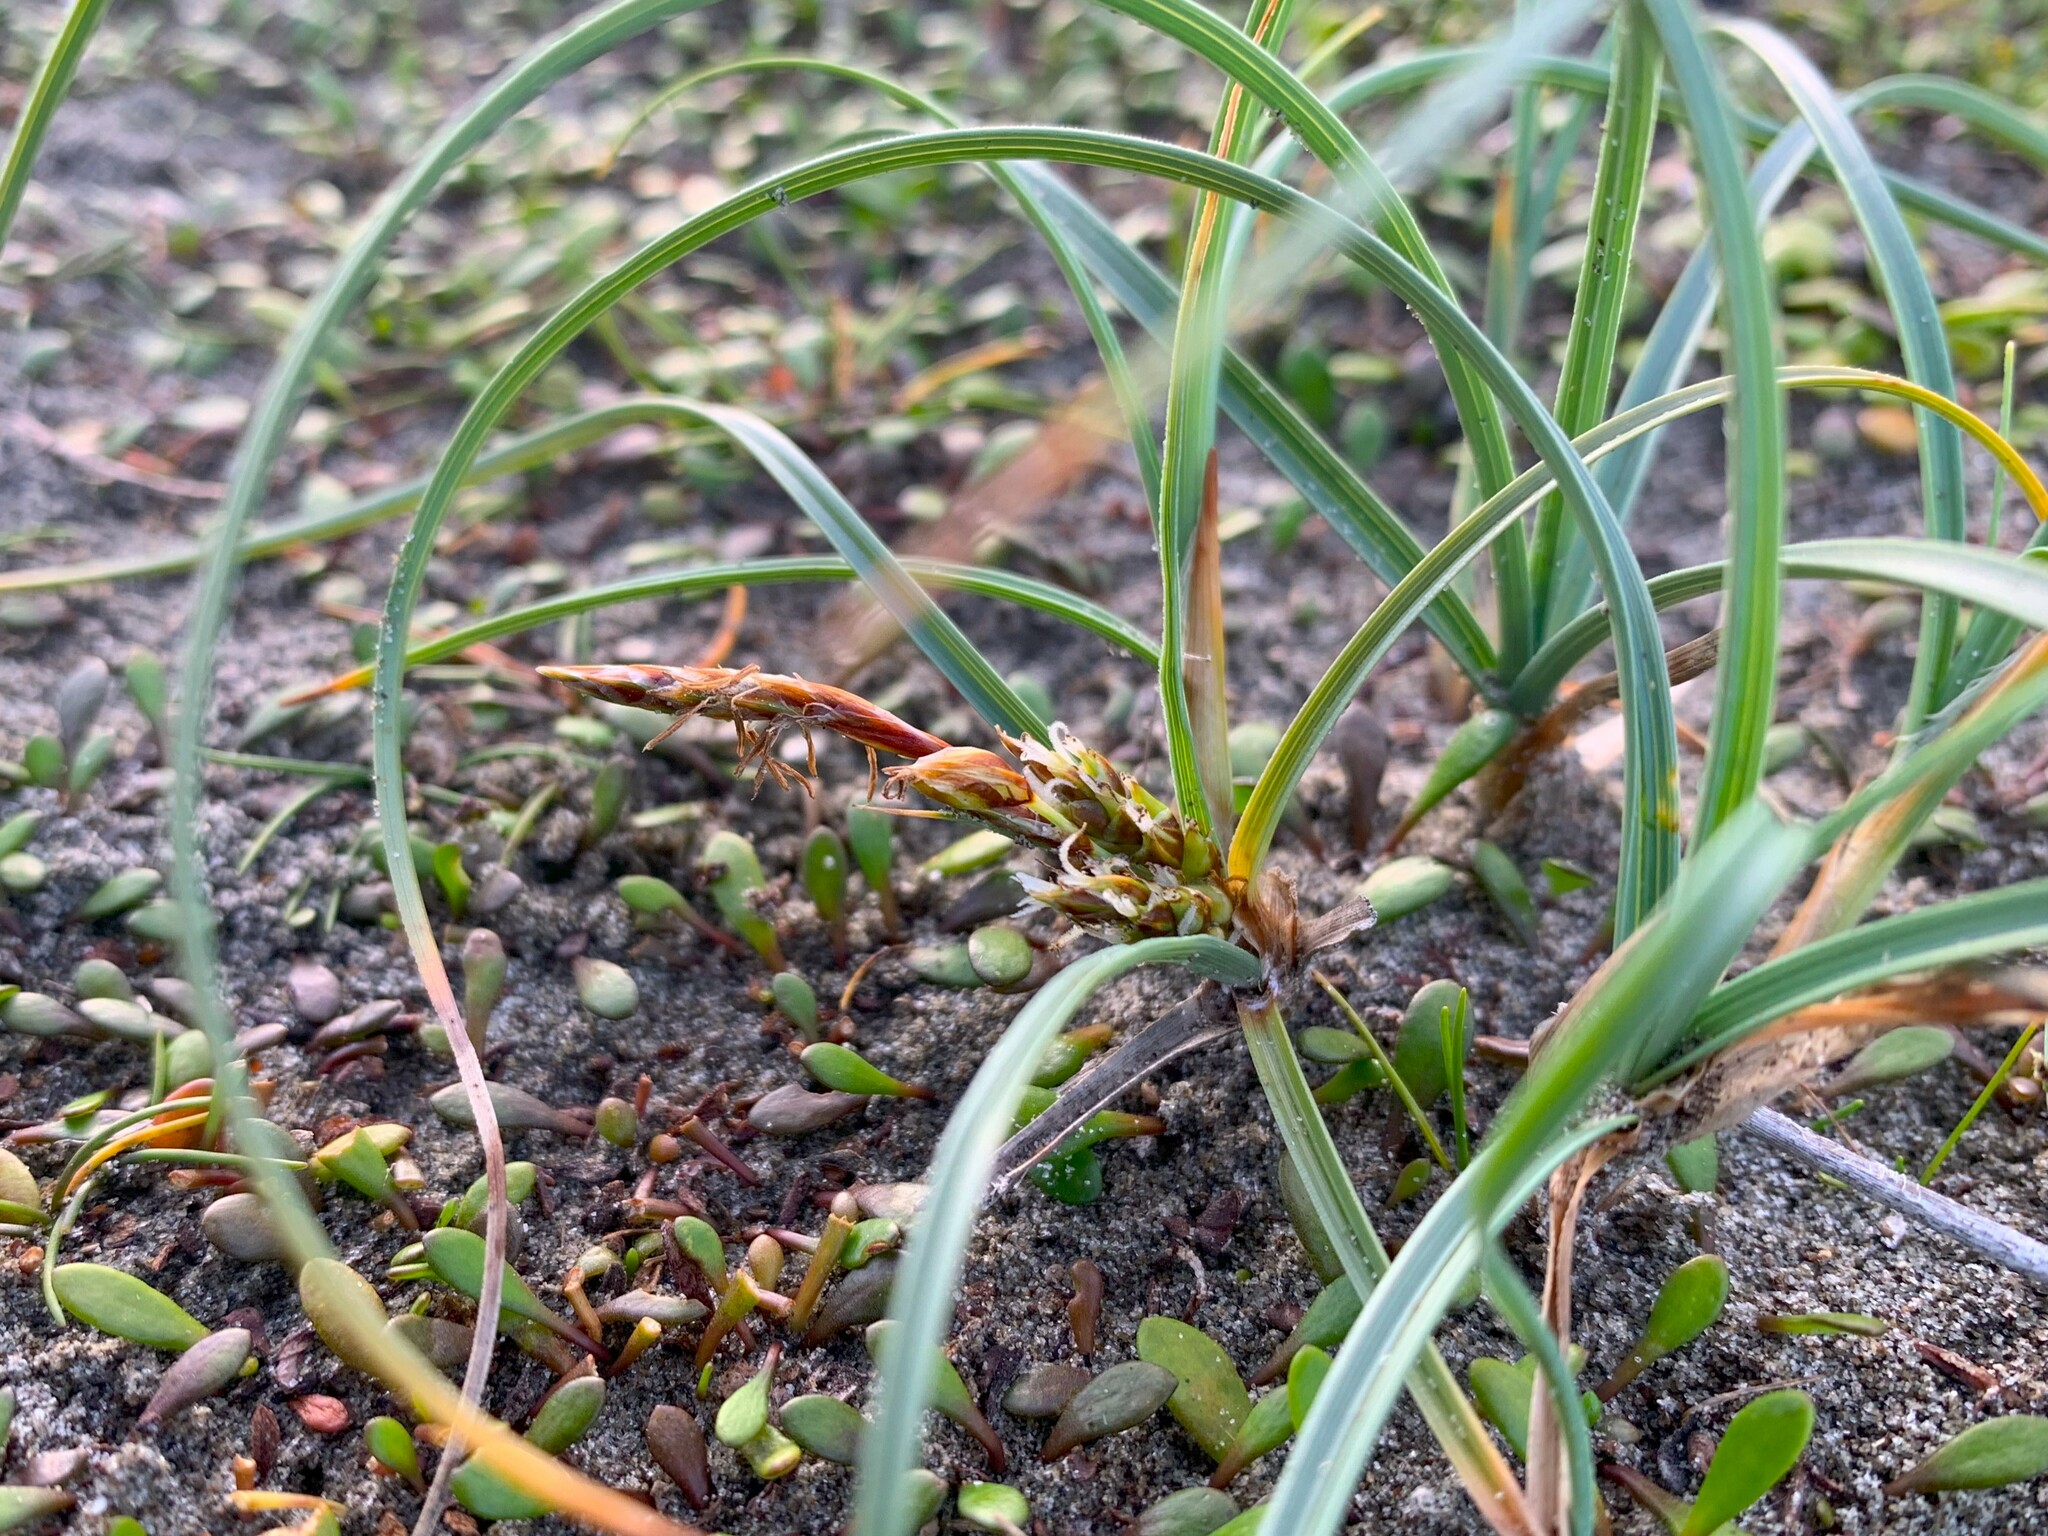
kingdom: Plantae
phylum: Tracheophyta
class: Liliopsida
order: Poales
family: Cyperaceae
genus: Carex
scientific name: Carex pumila
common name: Dwarf sedge
